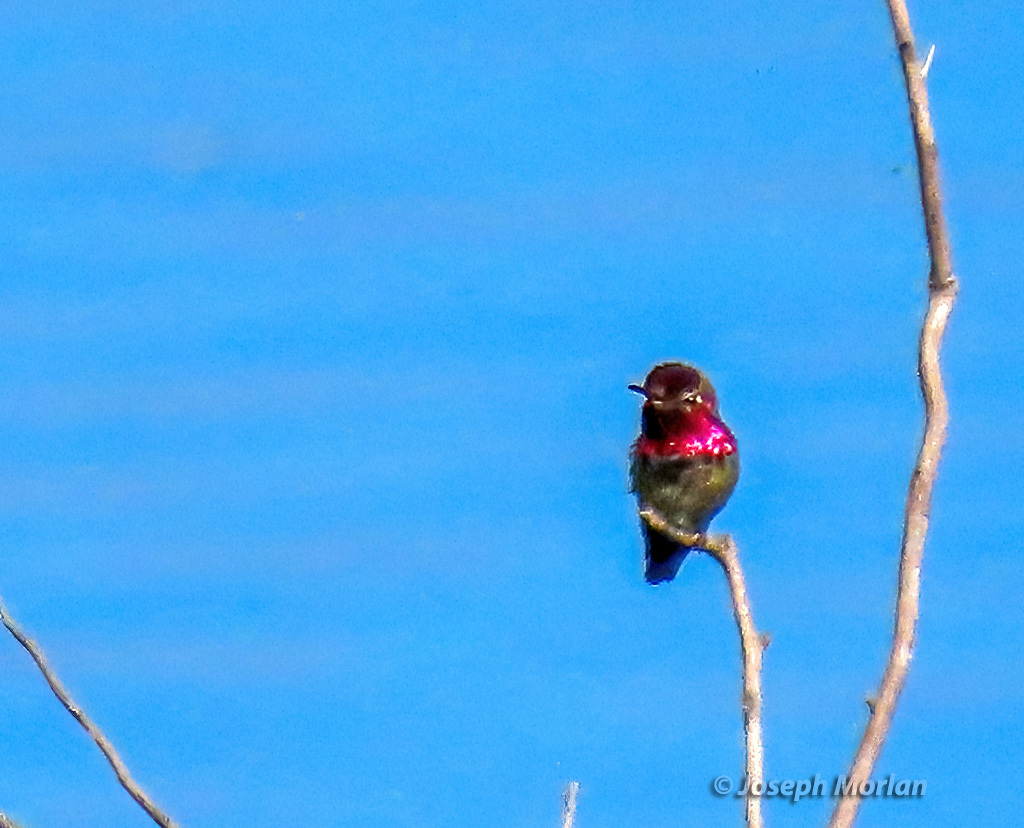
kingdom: Animalia
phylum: Chordata
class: Aves
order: Apodiformes
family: Trochilidae
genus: Calypte
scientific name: Calypte anna
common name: Anna's hummingbird
